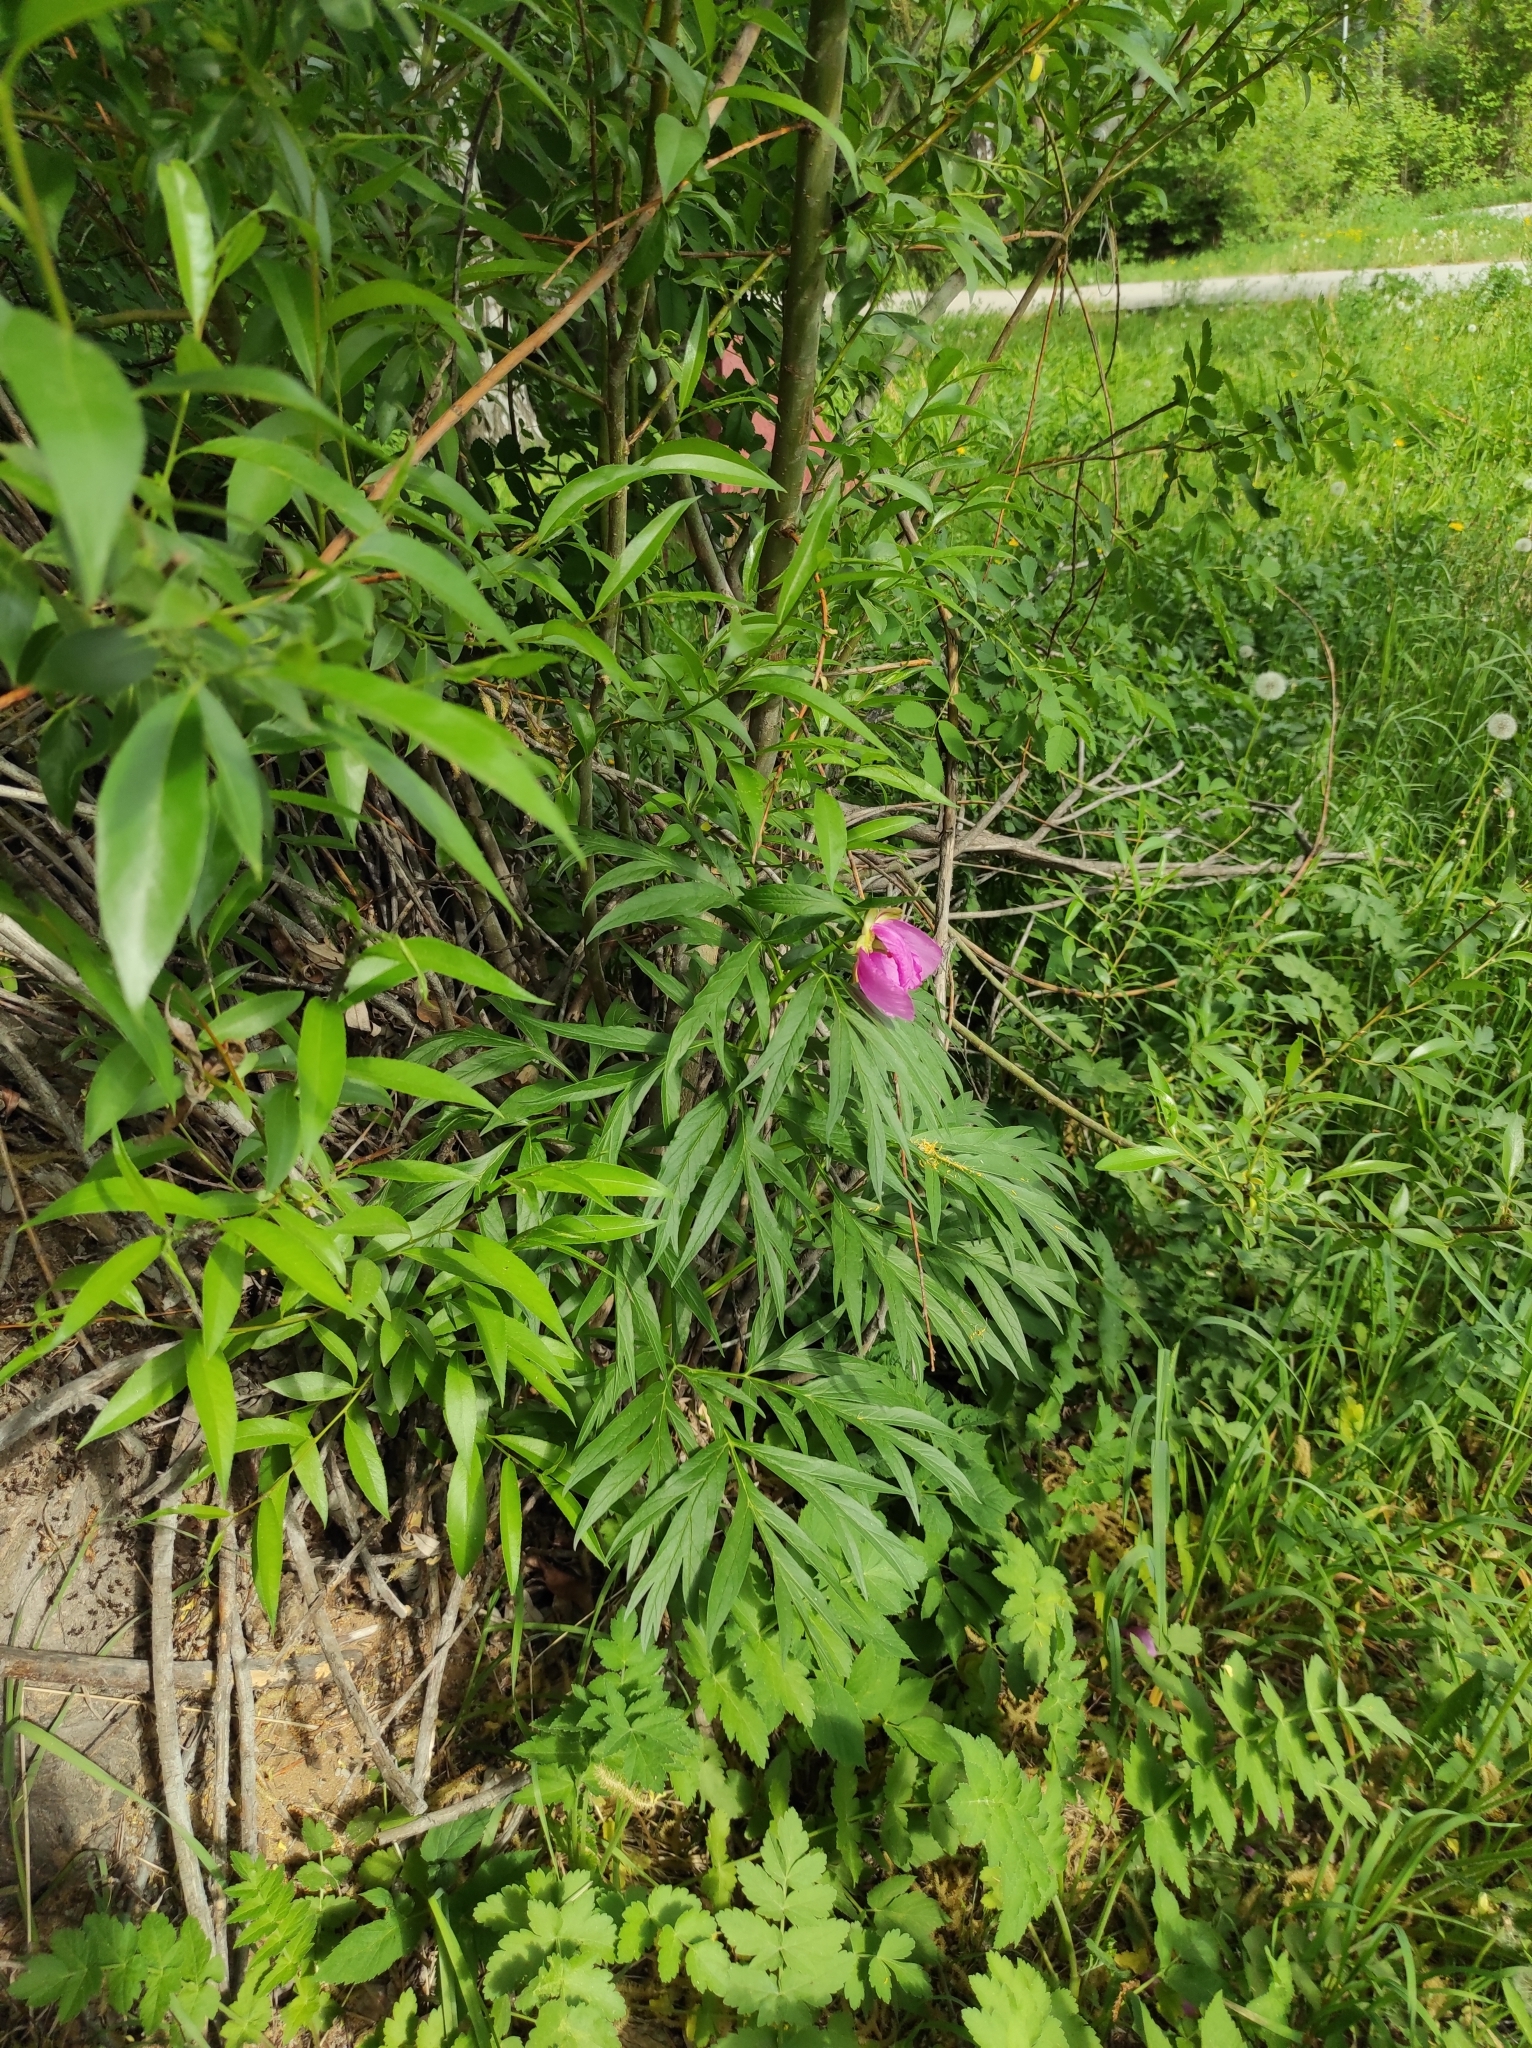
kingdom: Plantae
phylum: Tracheophyta
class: Magnoliopsida
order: Saxifragales
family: Paeoniaceae
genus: Paeonia
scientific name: Paeonia anomala
